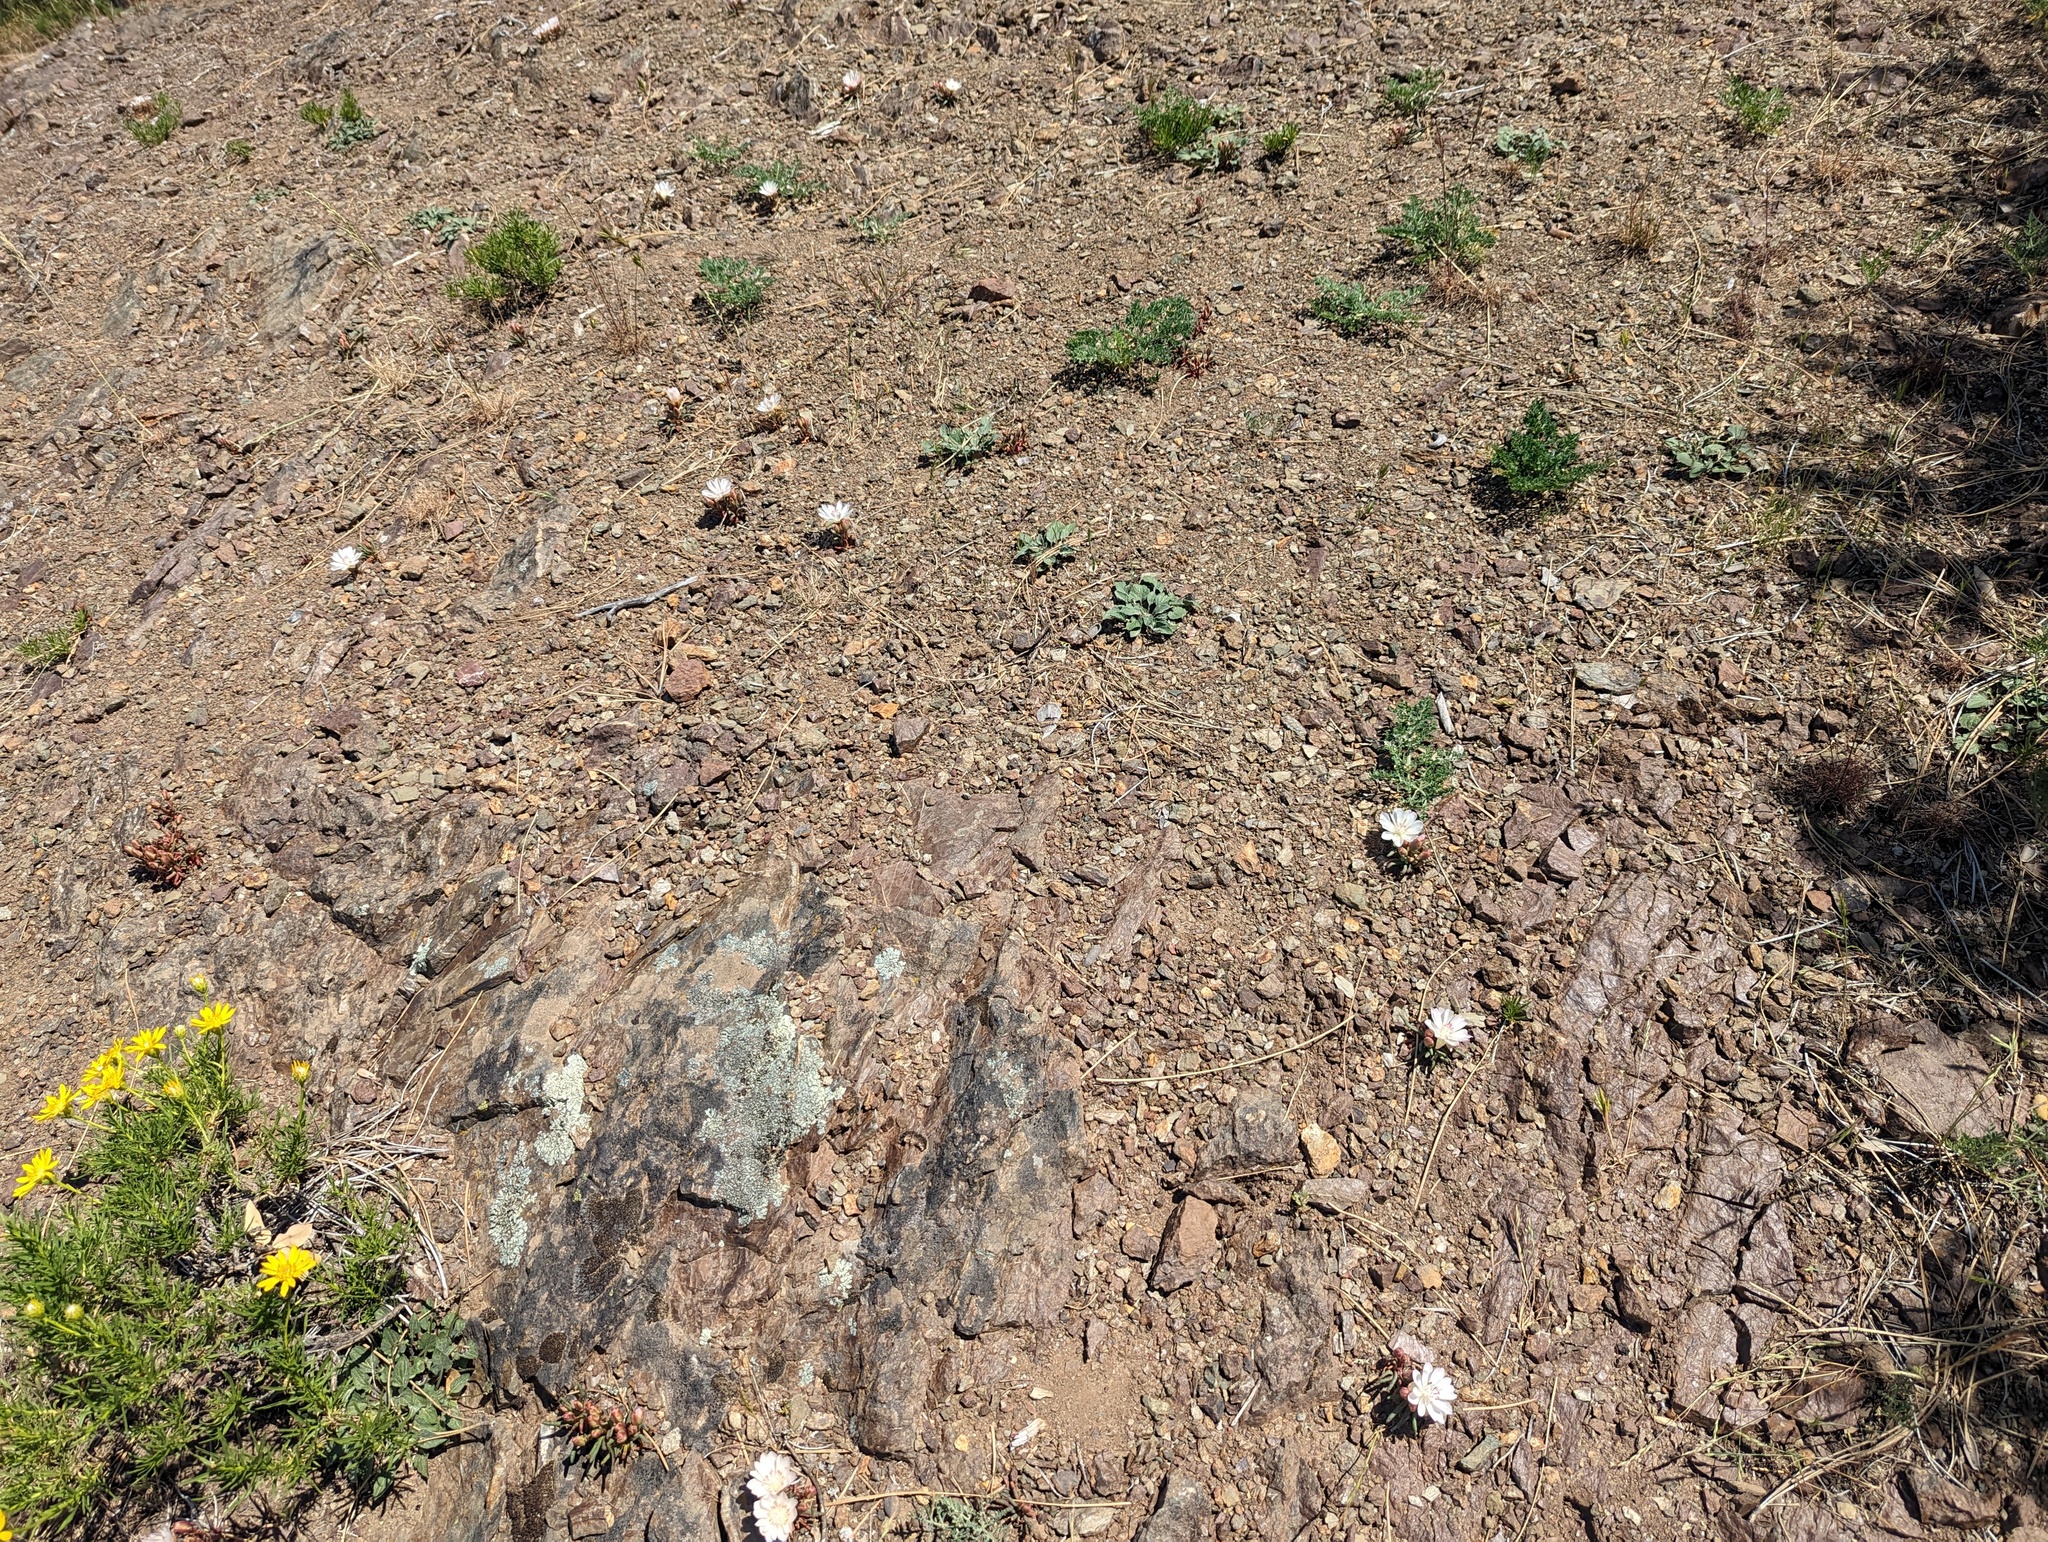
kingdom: Plantae
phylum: Tracheophyta
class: Magnoliopsida
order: Caryophyllales
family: Montiaceae
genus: Lewisia
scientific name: Lewisia rediviva
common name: Bitter-root
